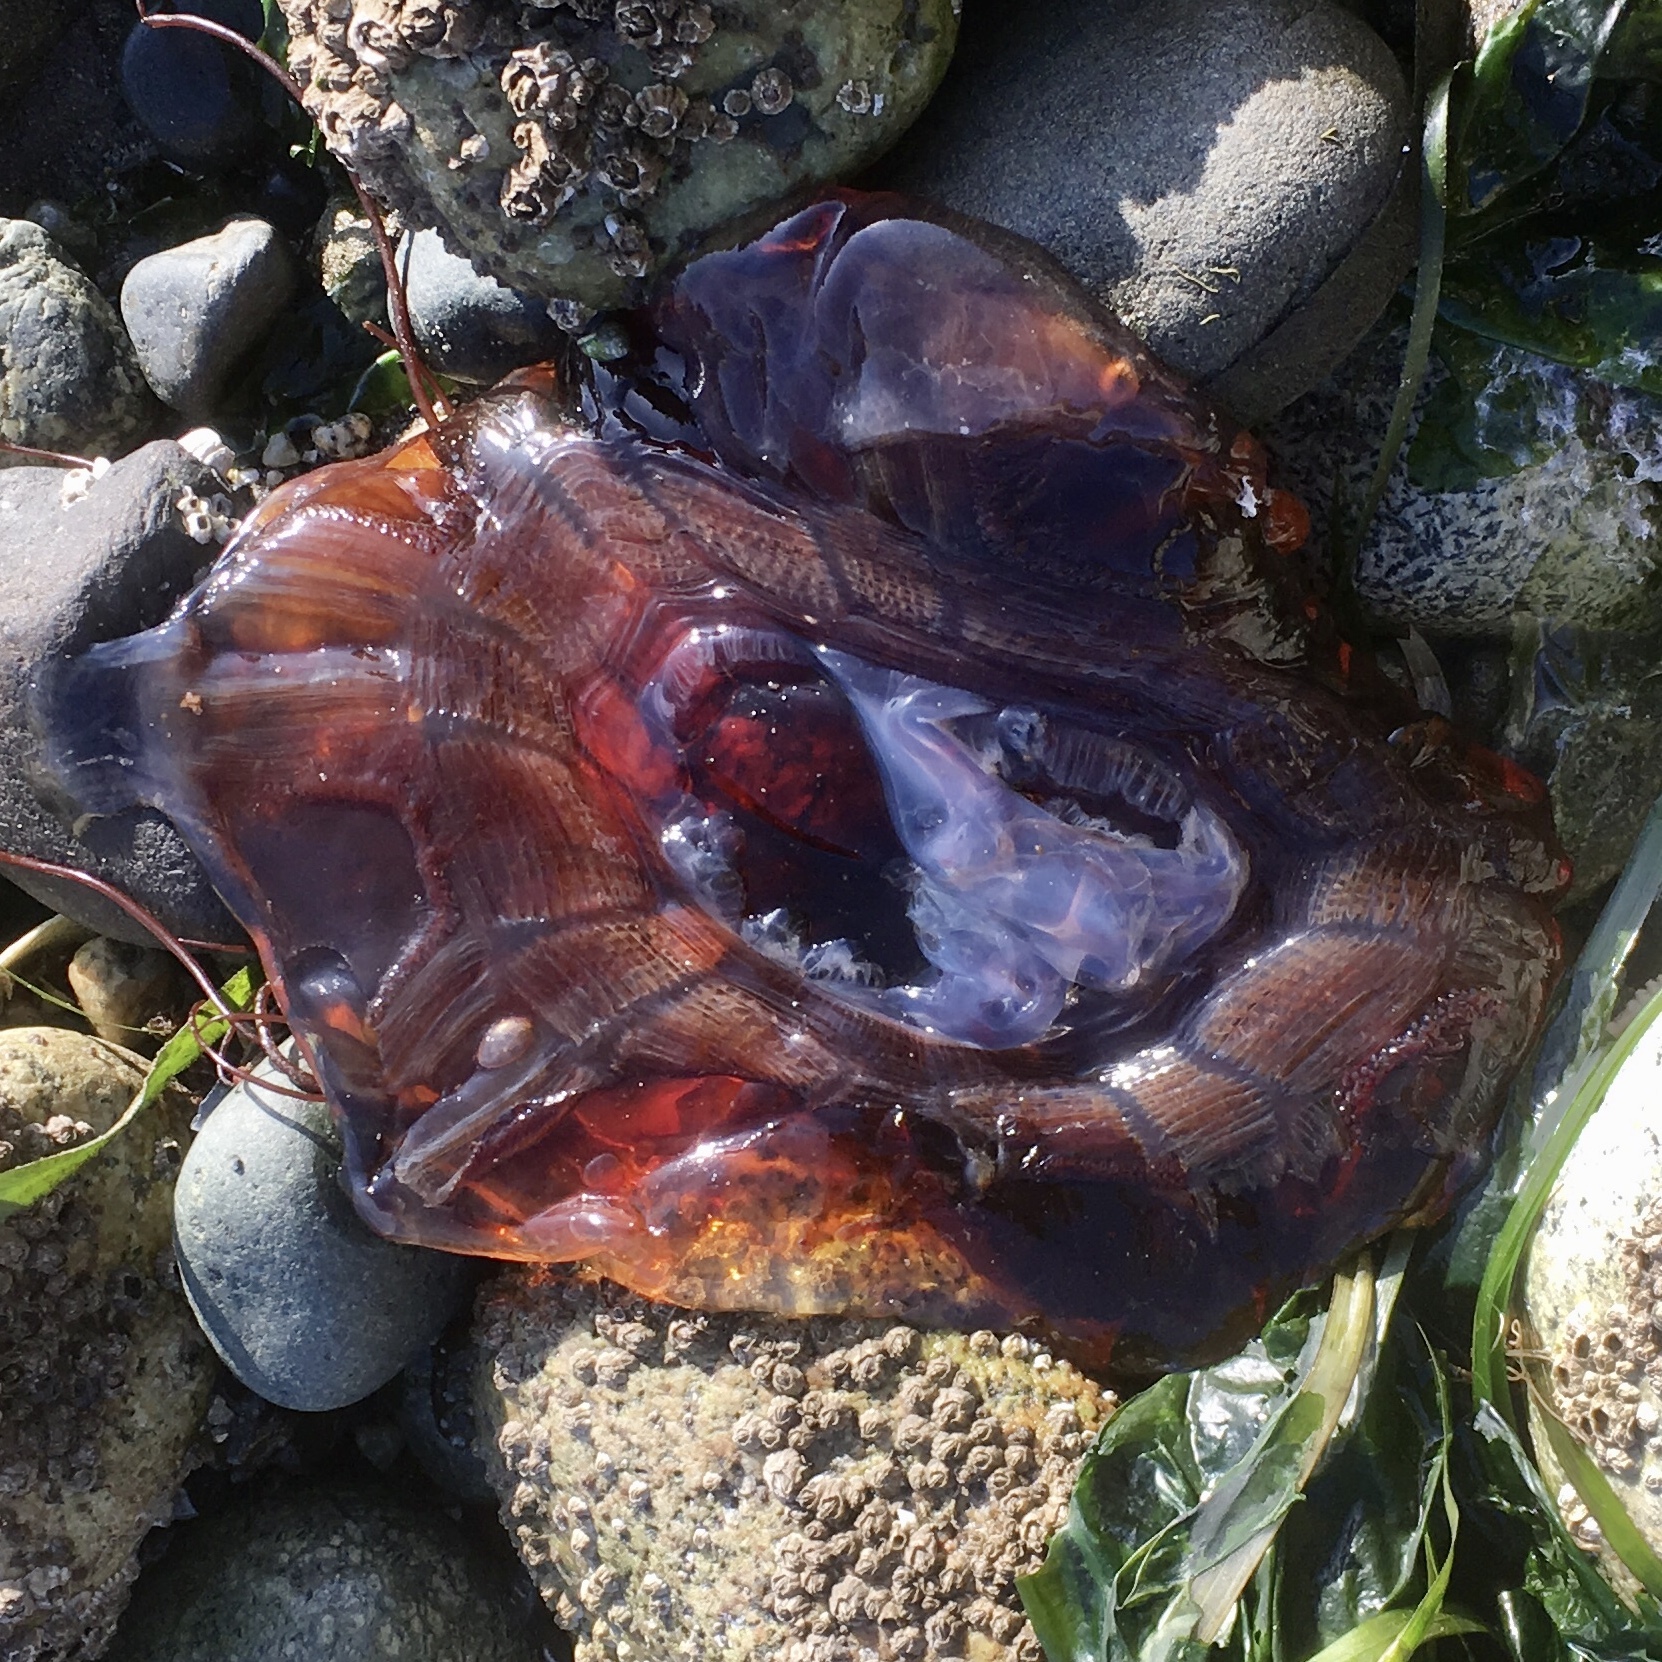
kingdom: Animalia
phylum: Cnidaria
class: Scyphozoa
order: Semaeostomeae
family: Cyaneidae
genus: Cyanea
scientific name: Cyanea ferruginea
